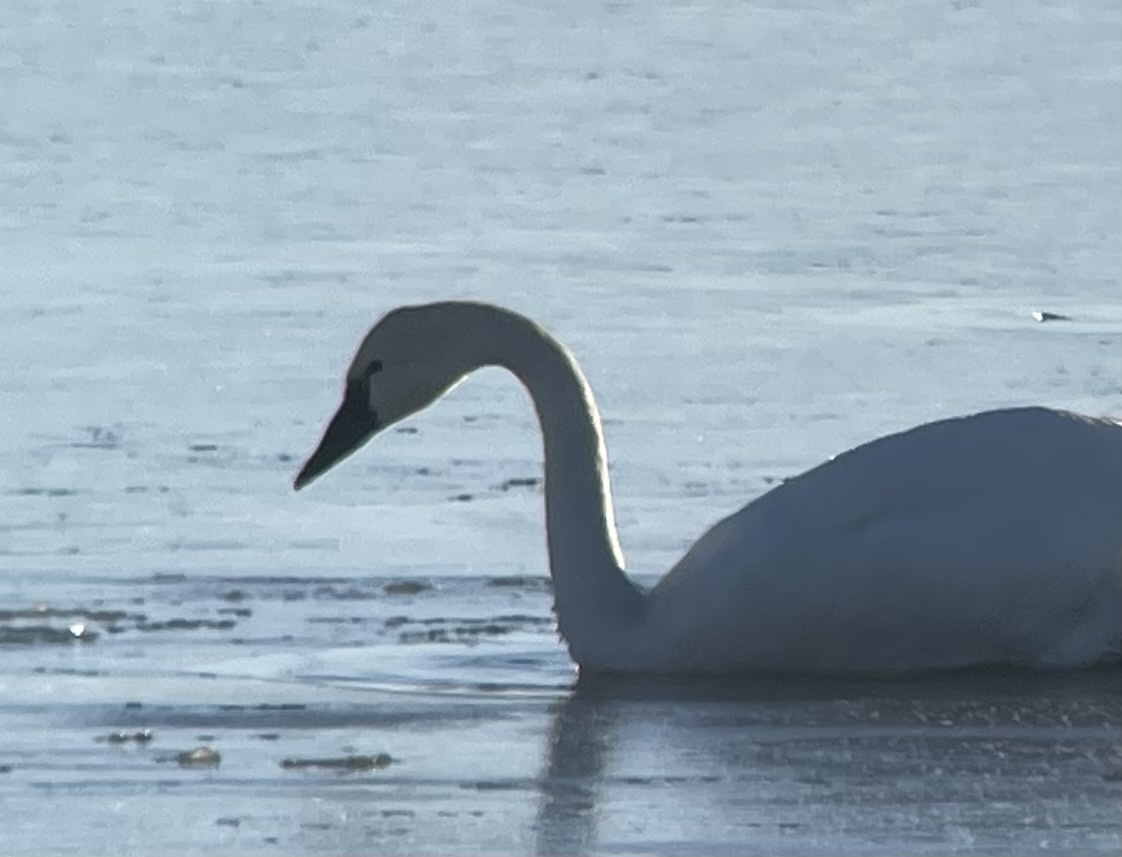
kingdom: Animalia
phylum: Chordata
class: Aves
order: Anseriformes
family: Anatidae
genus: Cygnus
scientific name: Cygnus columbianus
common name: Tundra swan
